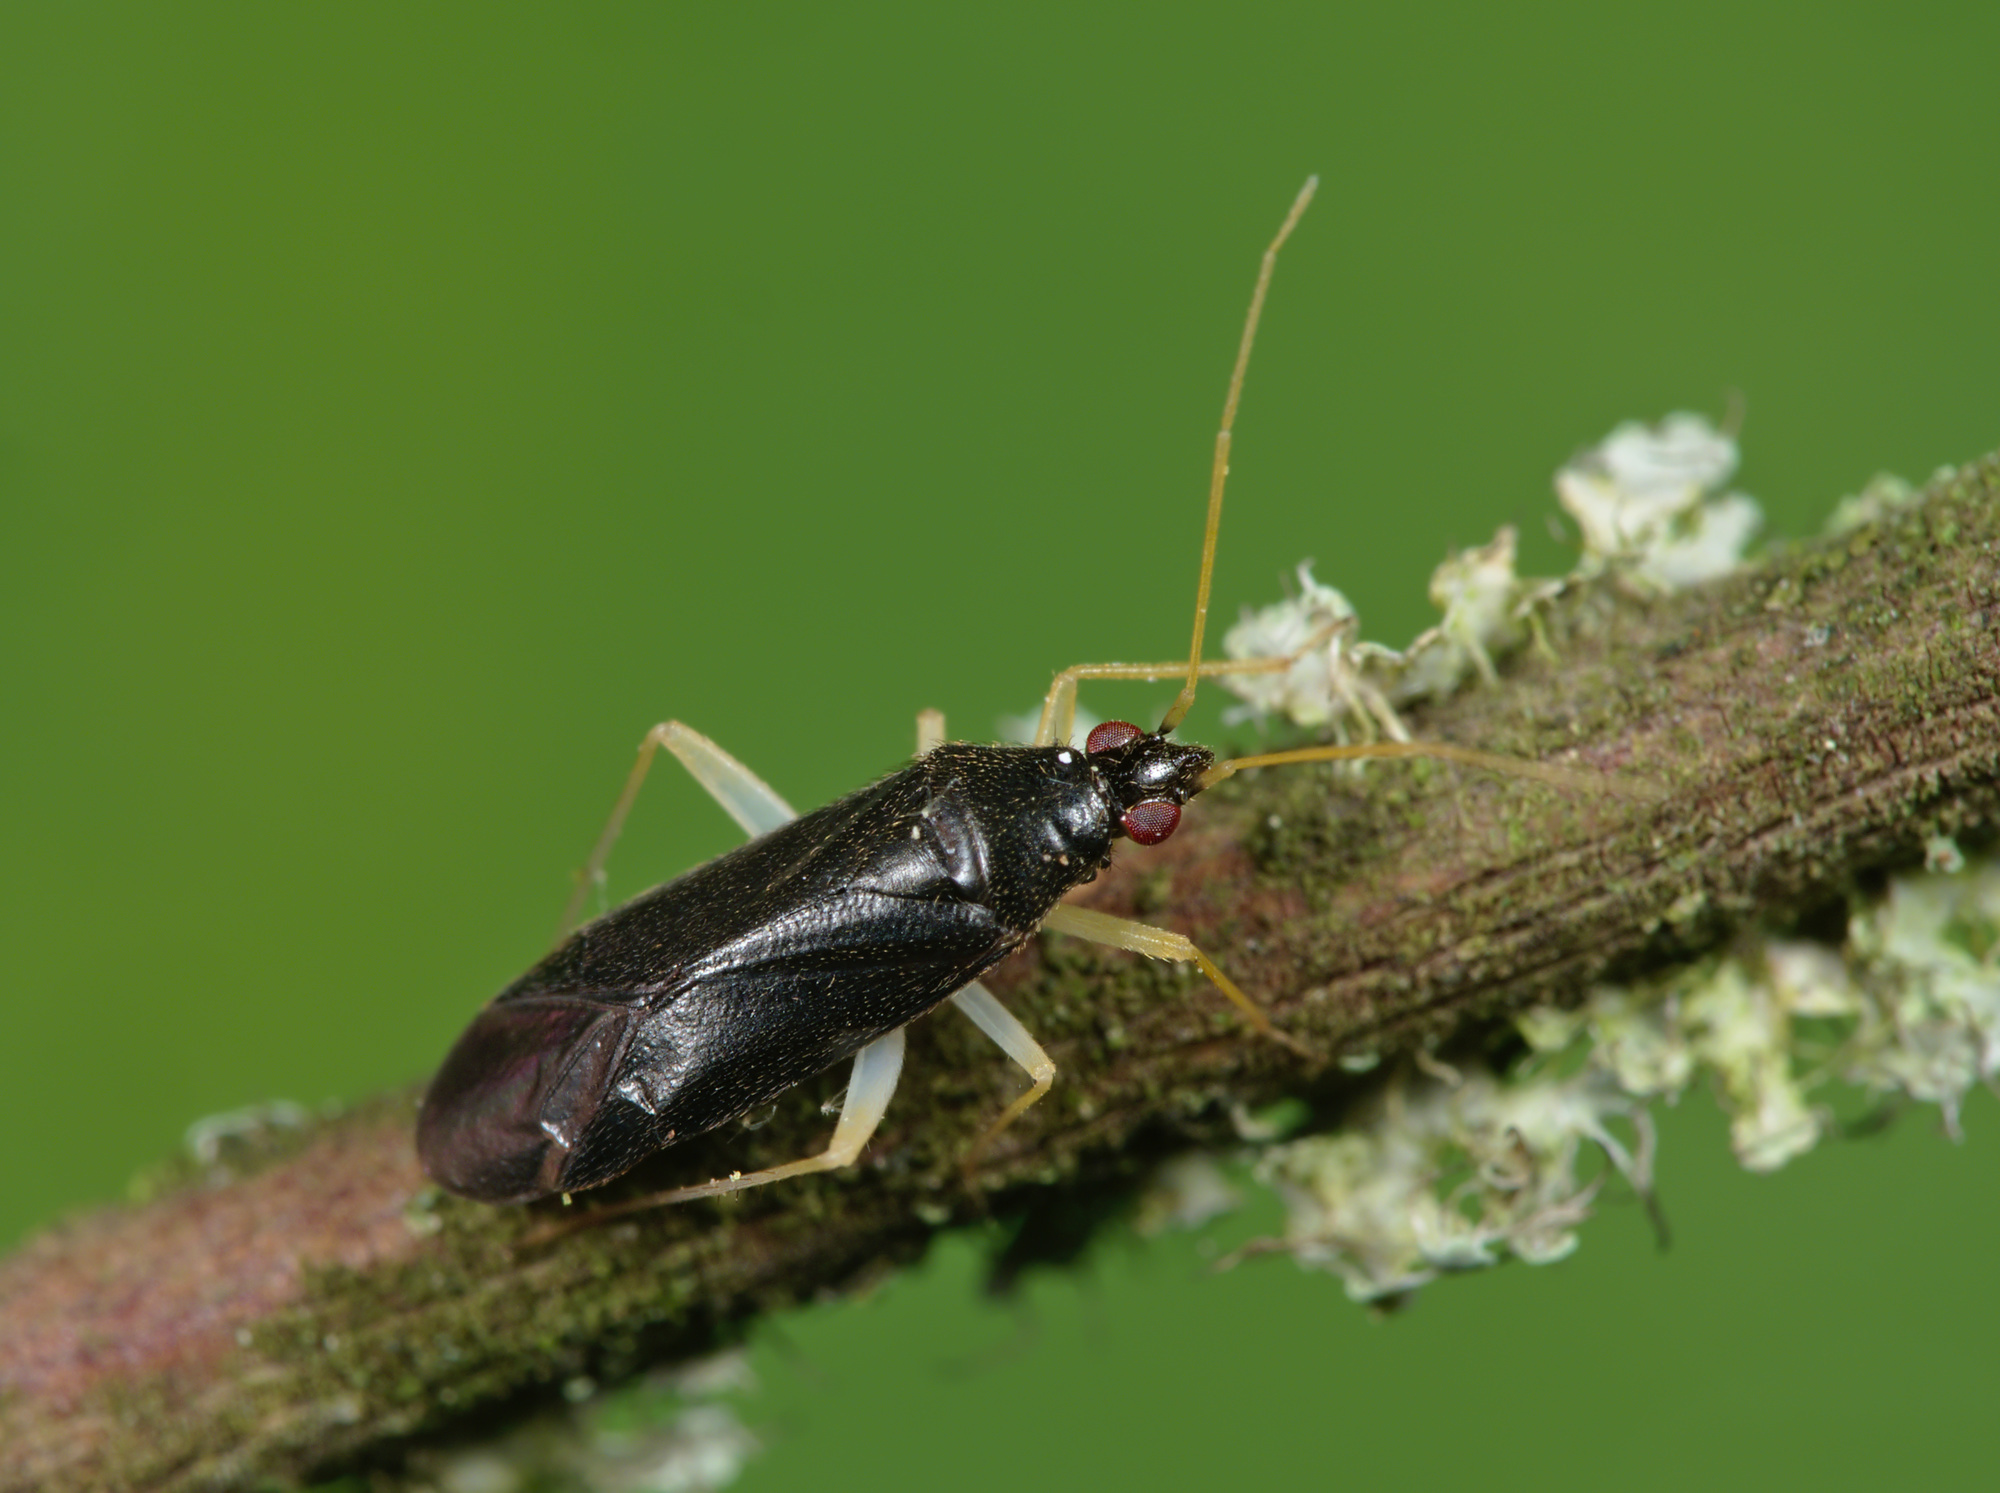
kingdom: Animalia
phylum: Arthropoda
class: Insecta
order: Hemiptera
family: Miridae
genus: Phylus
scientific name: Phylus coryli
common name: Plant bug
